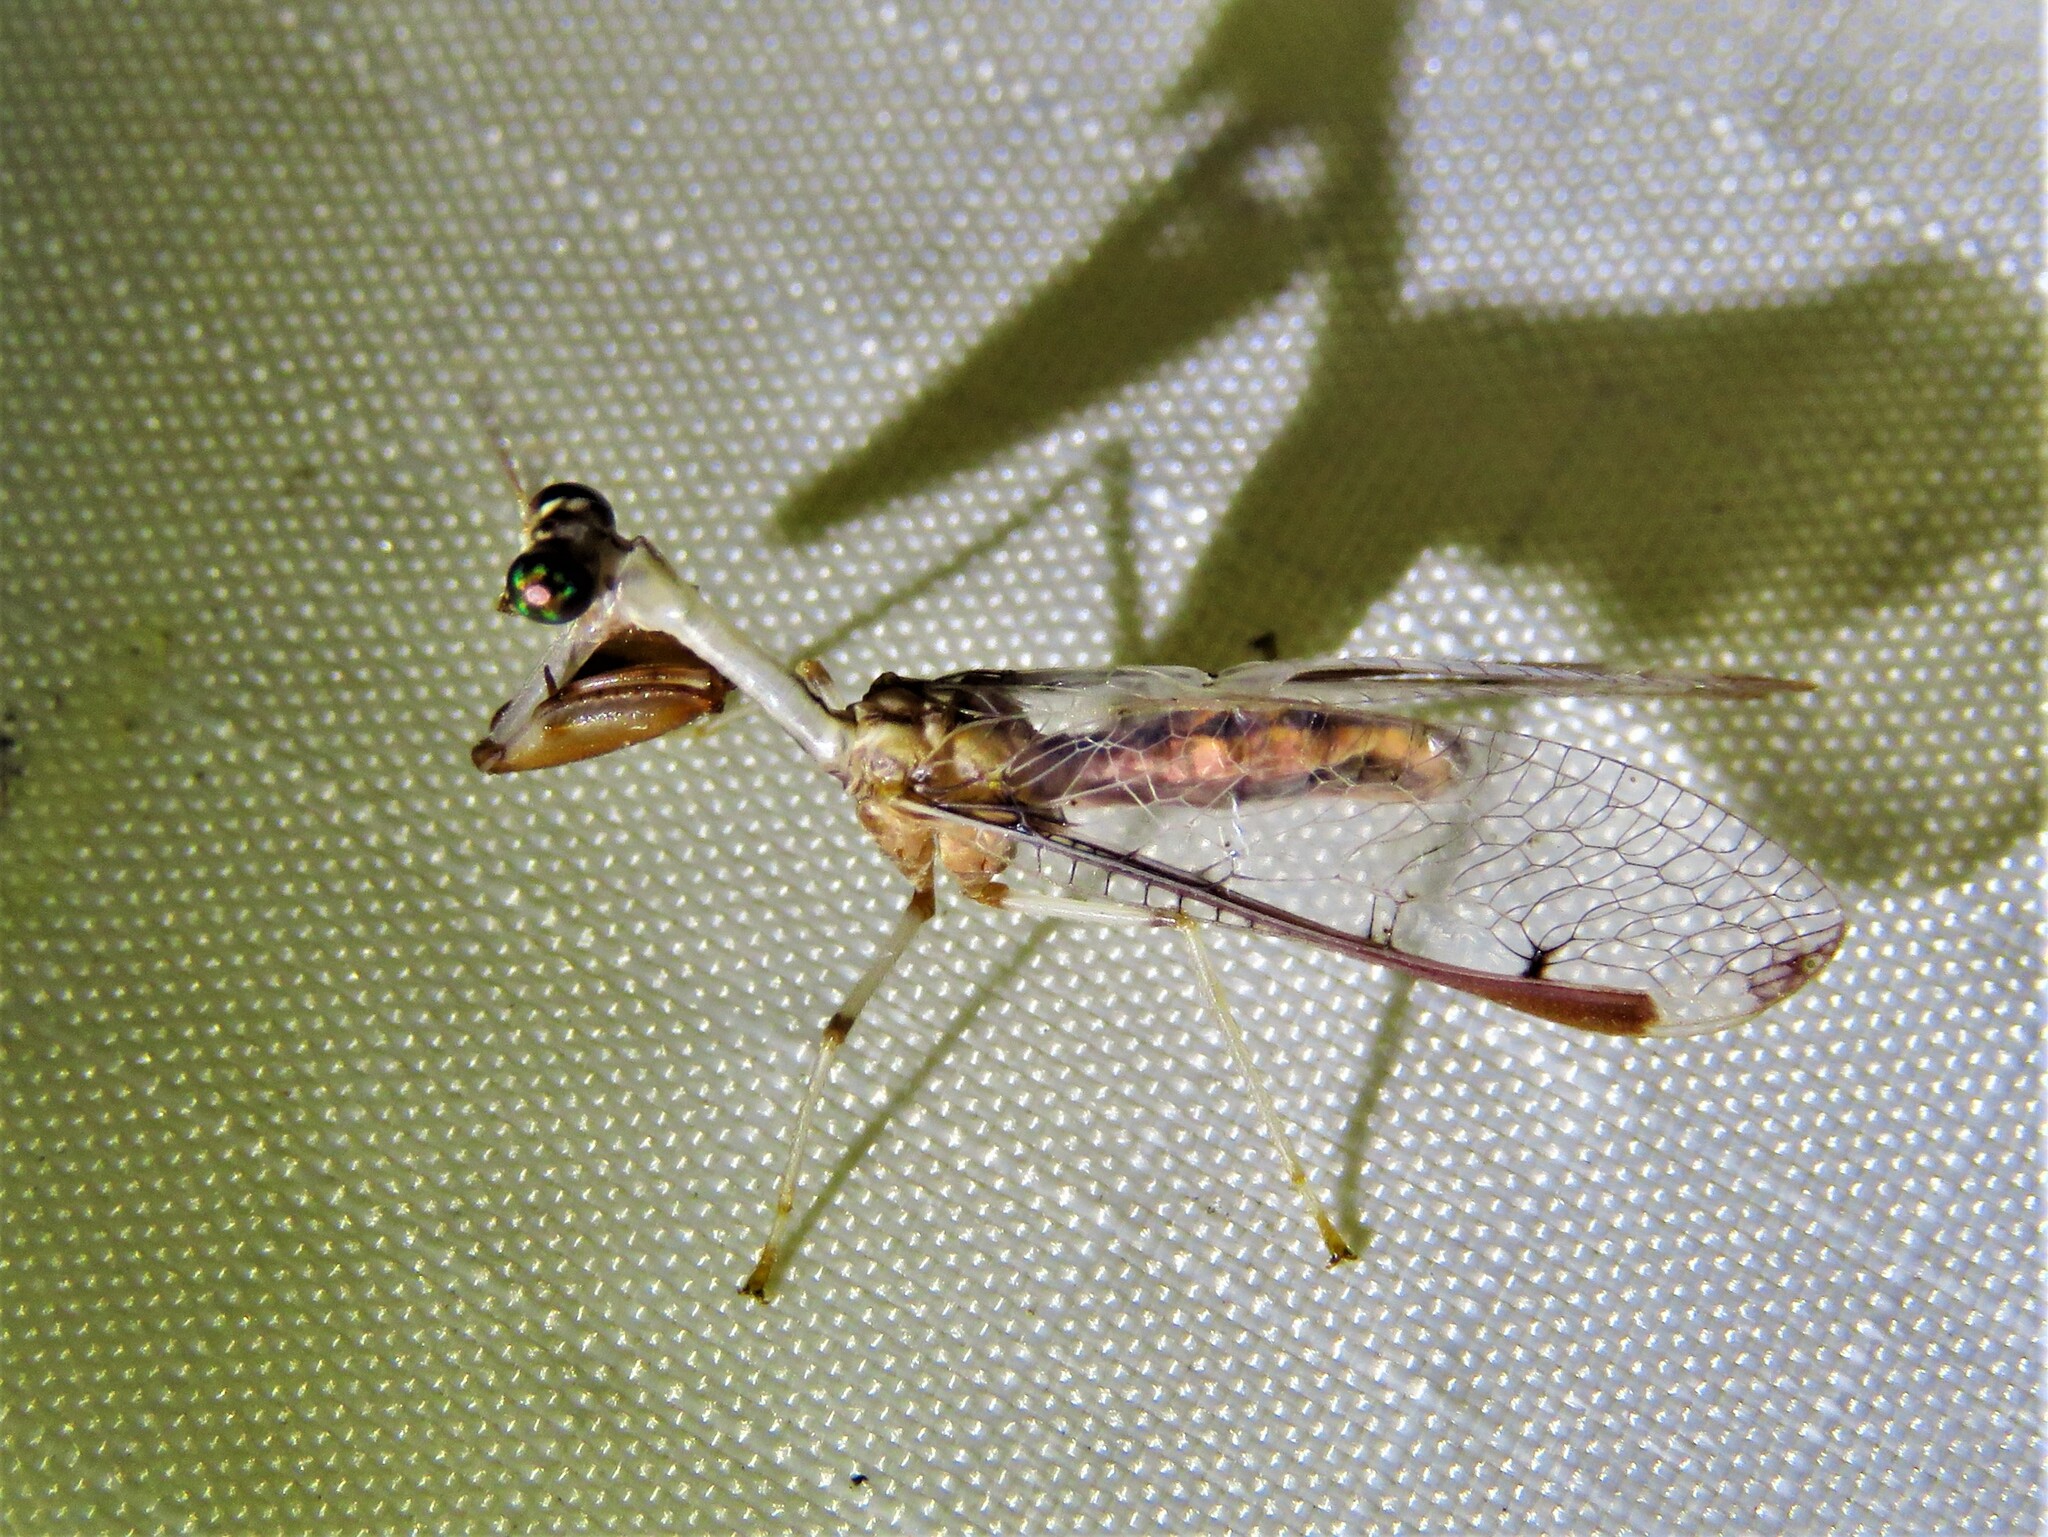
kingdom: Animalia
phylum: Arthropoda
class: Insecta
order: Neuroptera
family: Mantispidae
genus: Dicromantispa
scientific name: Dicromantispa interrupta
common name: Four-spotted mantidfly
